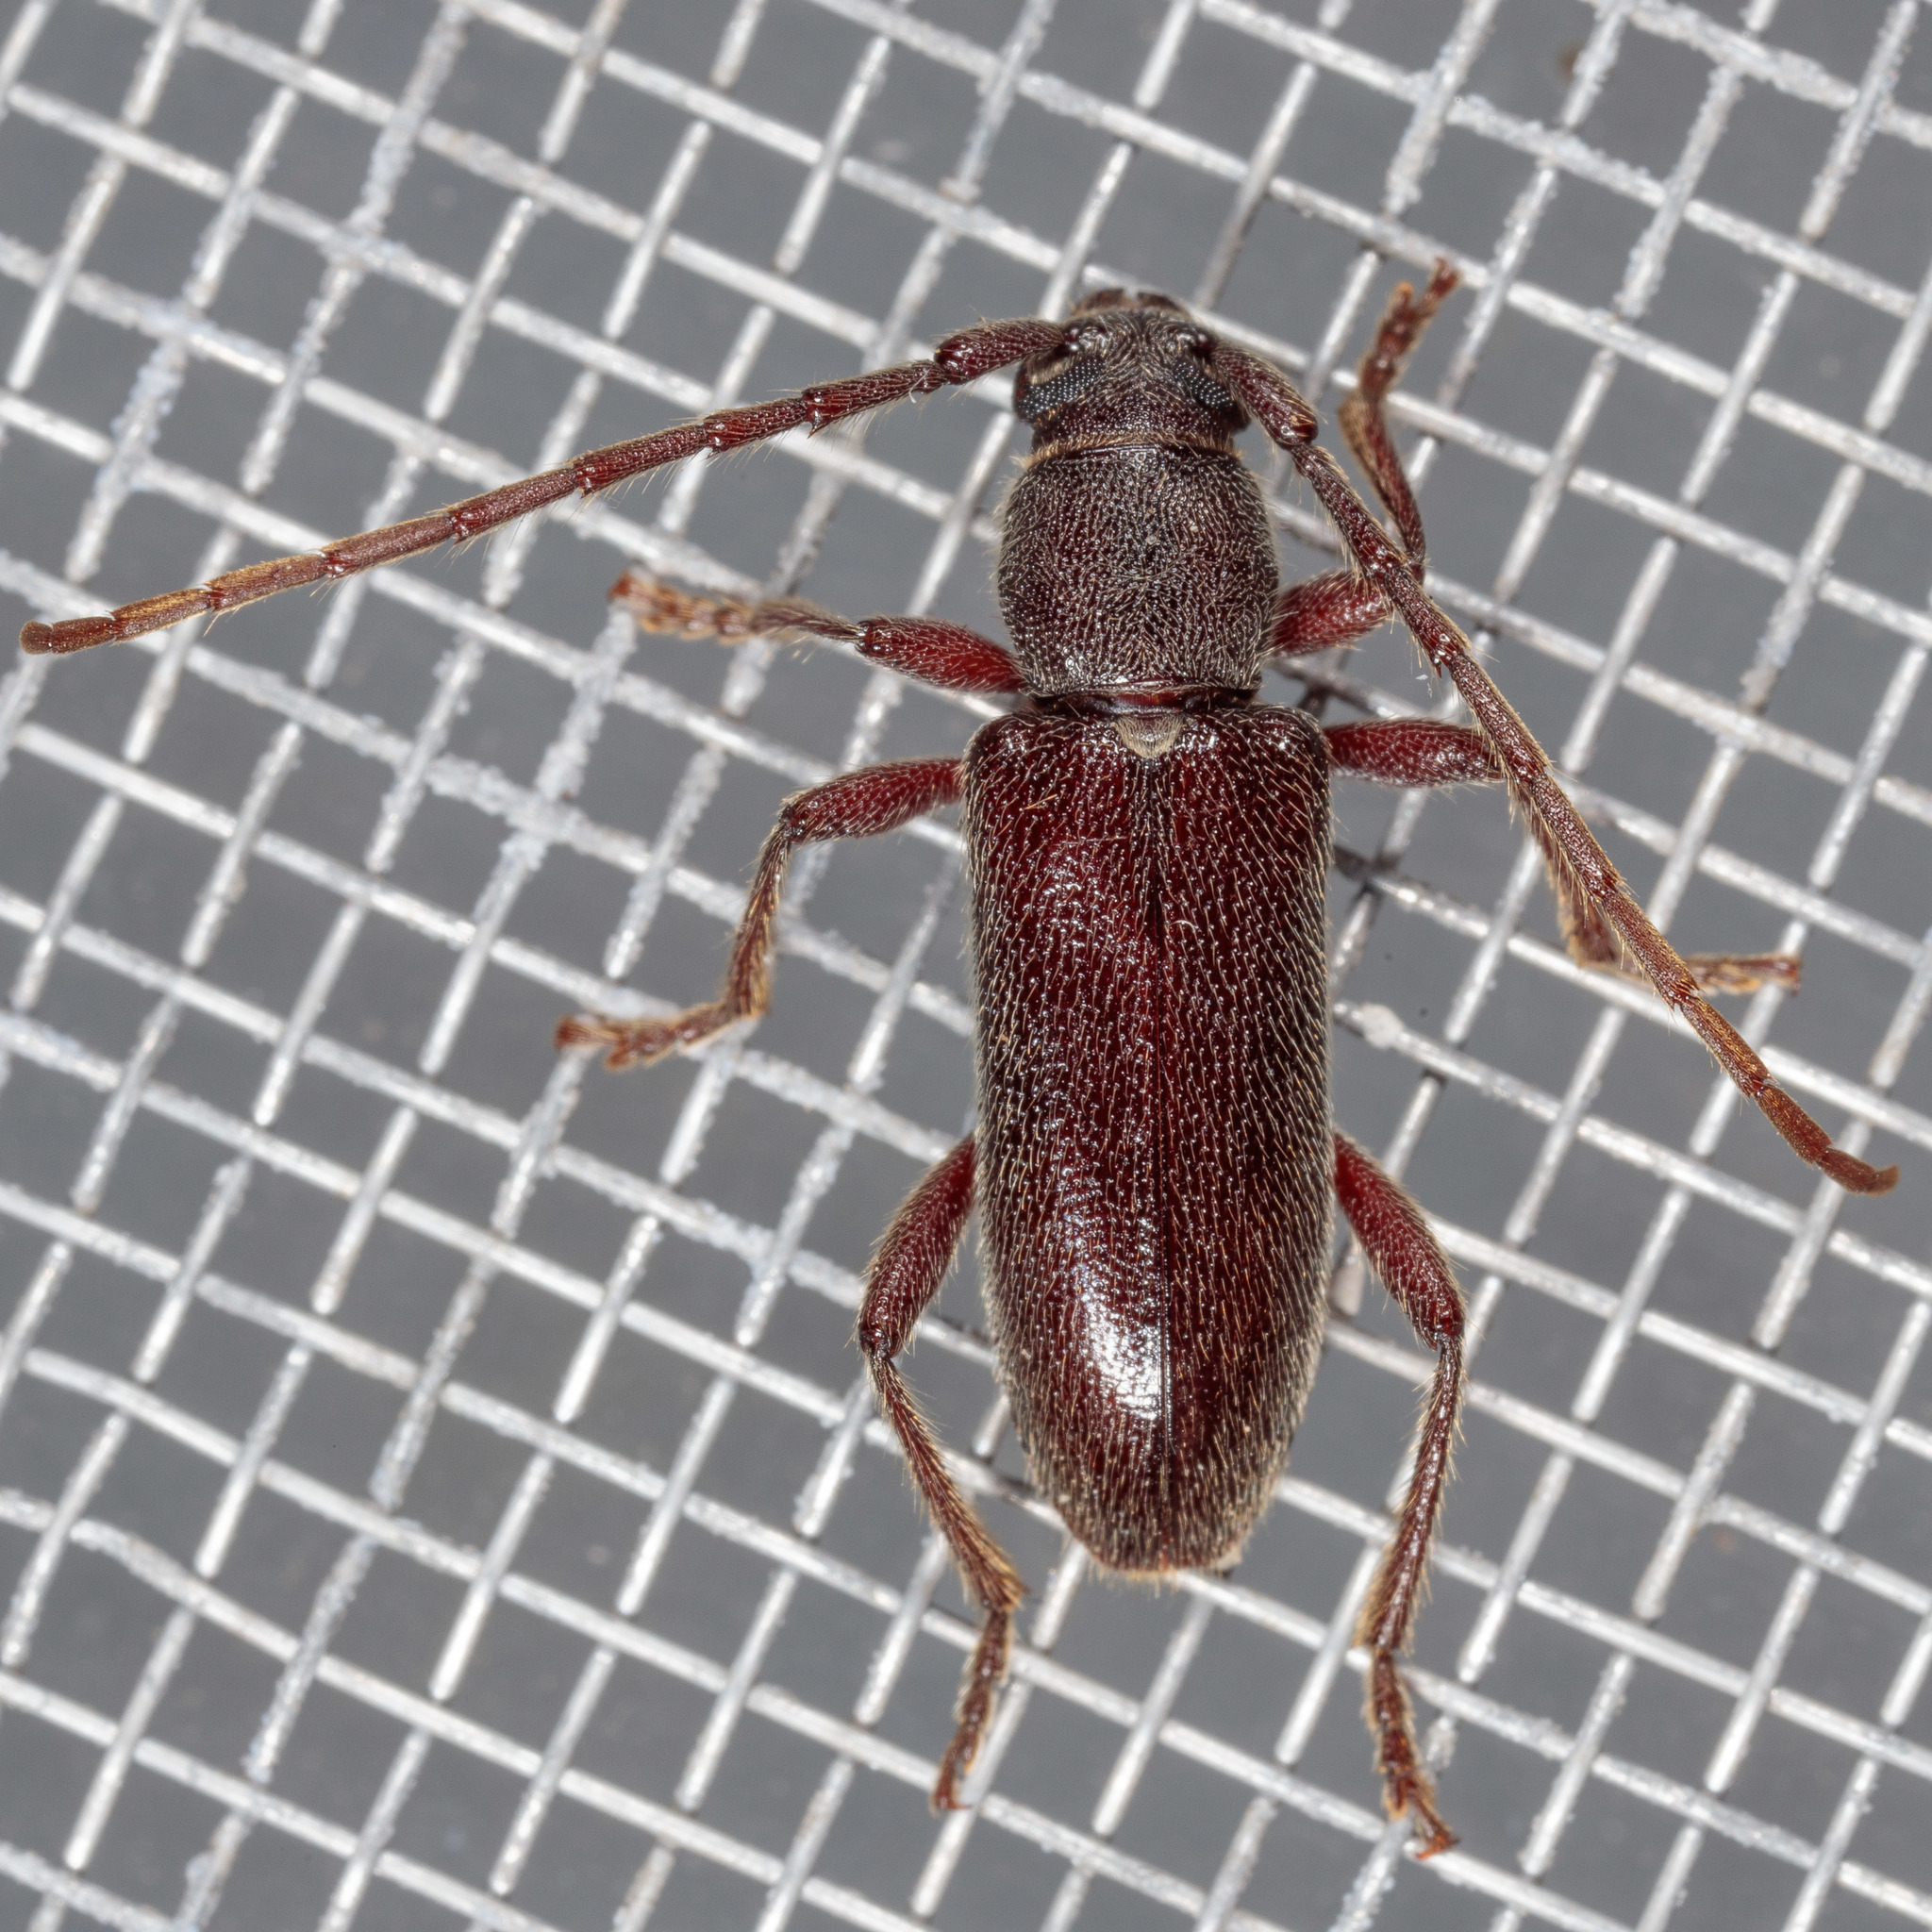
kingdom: Animalia
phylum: Arthropoda
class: Insecta
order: Coleoptera
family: Cerambycidae
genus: Anelaphus
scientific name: Anelaphus moestus
